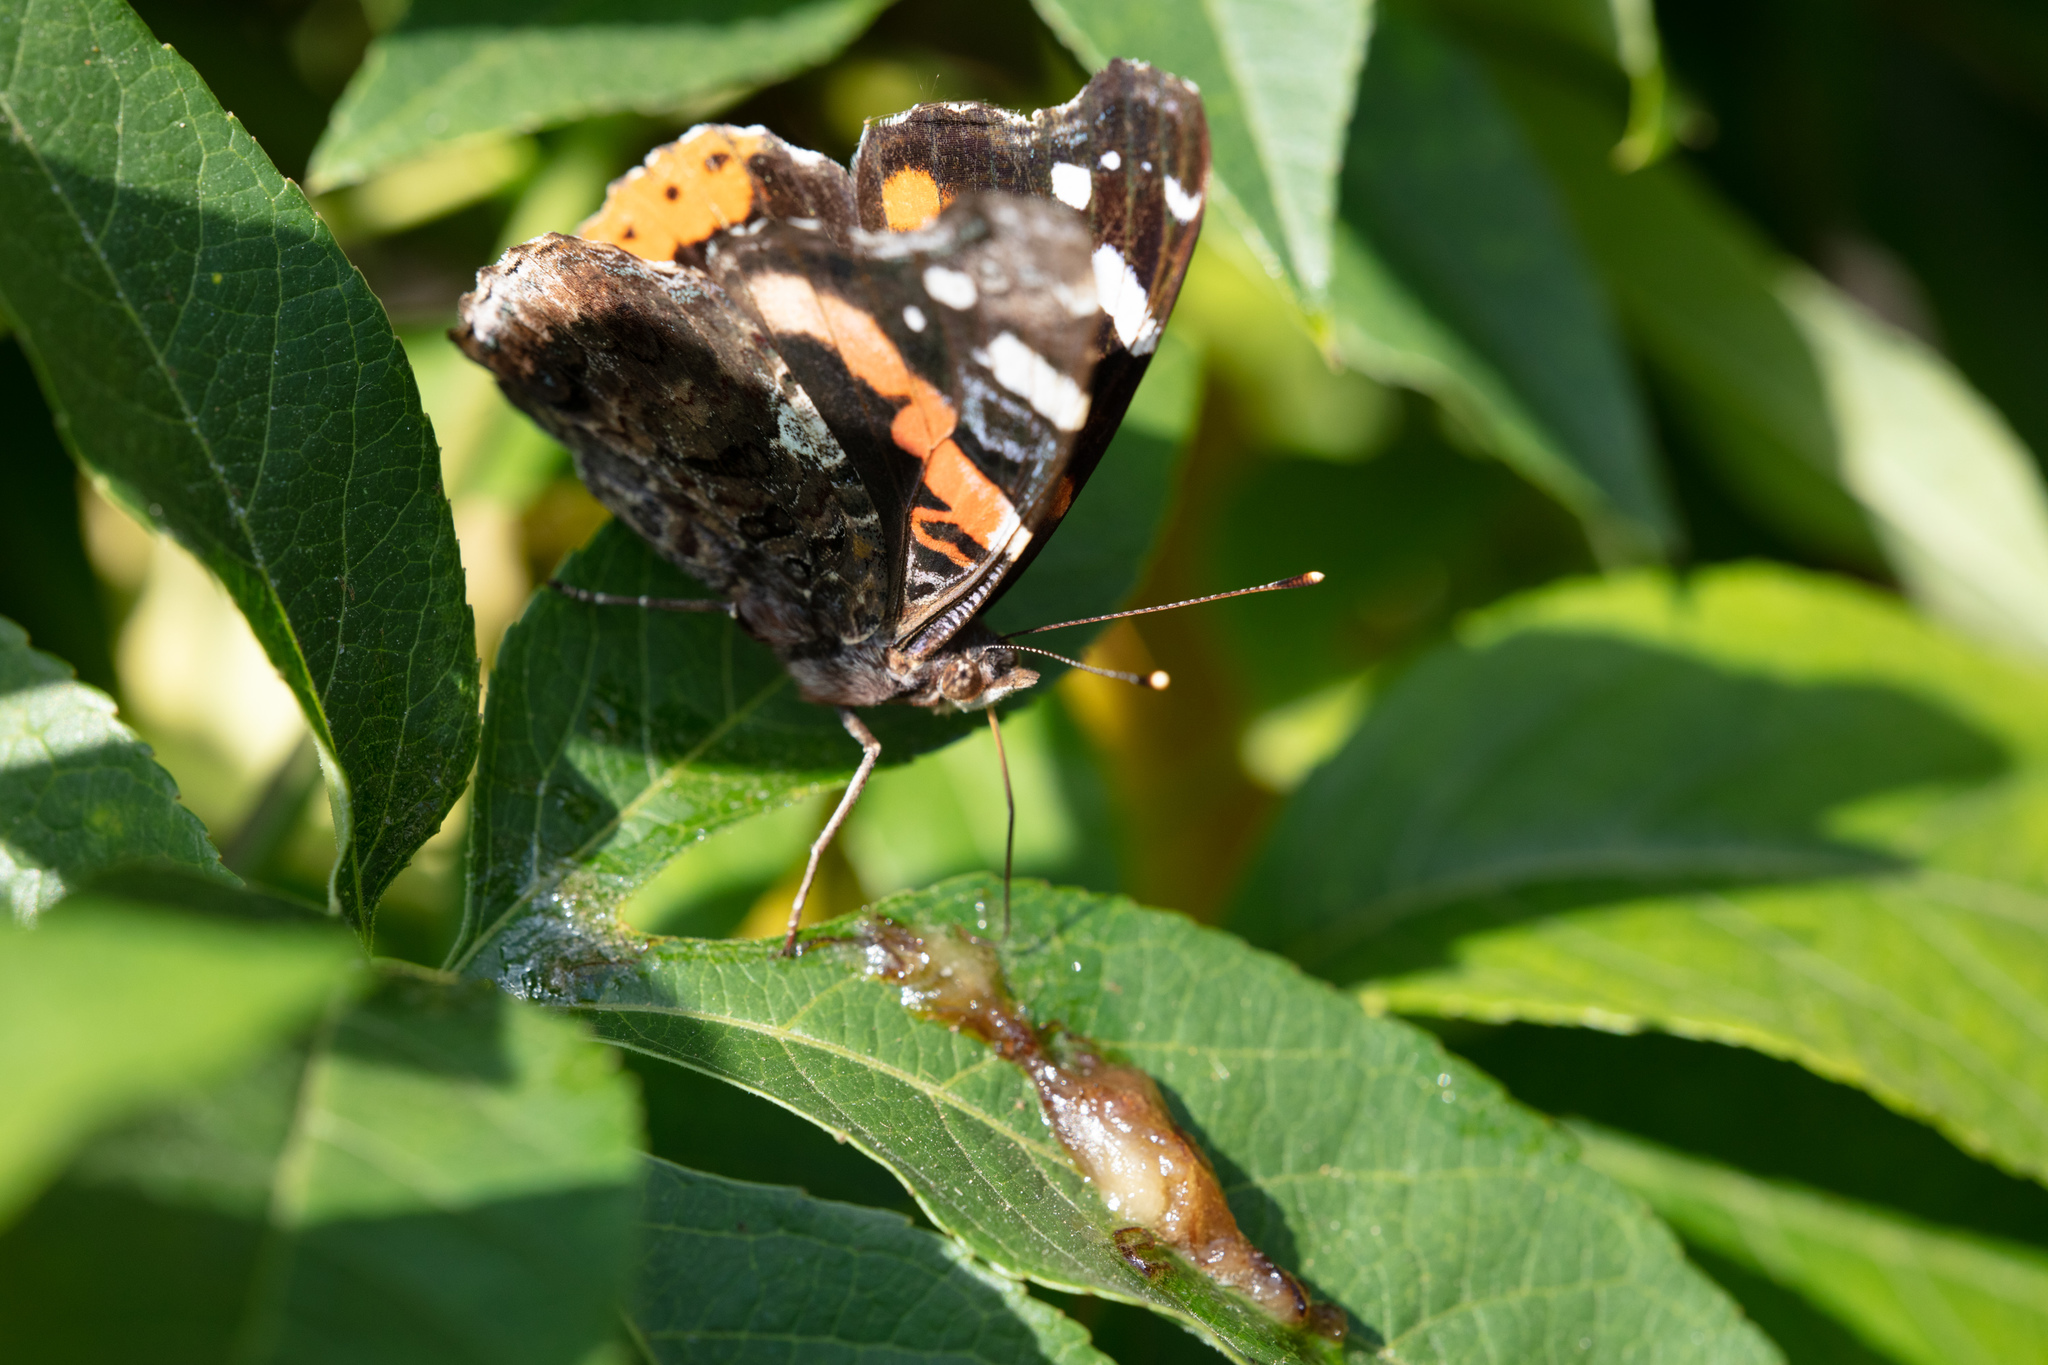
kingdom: Animalia
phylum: Arthropoda
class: Insecta
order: Lepidoptera
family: Nymphalidae
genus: Vanessa
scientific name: Vanessa atalanta
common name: Red admiral
